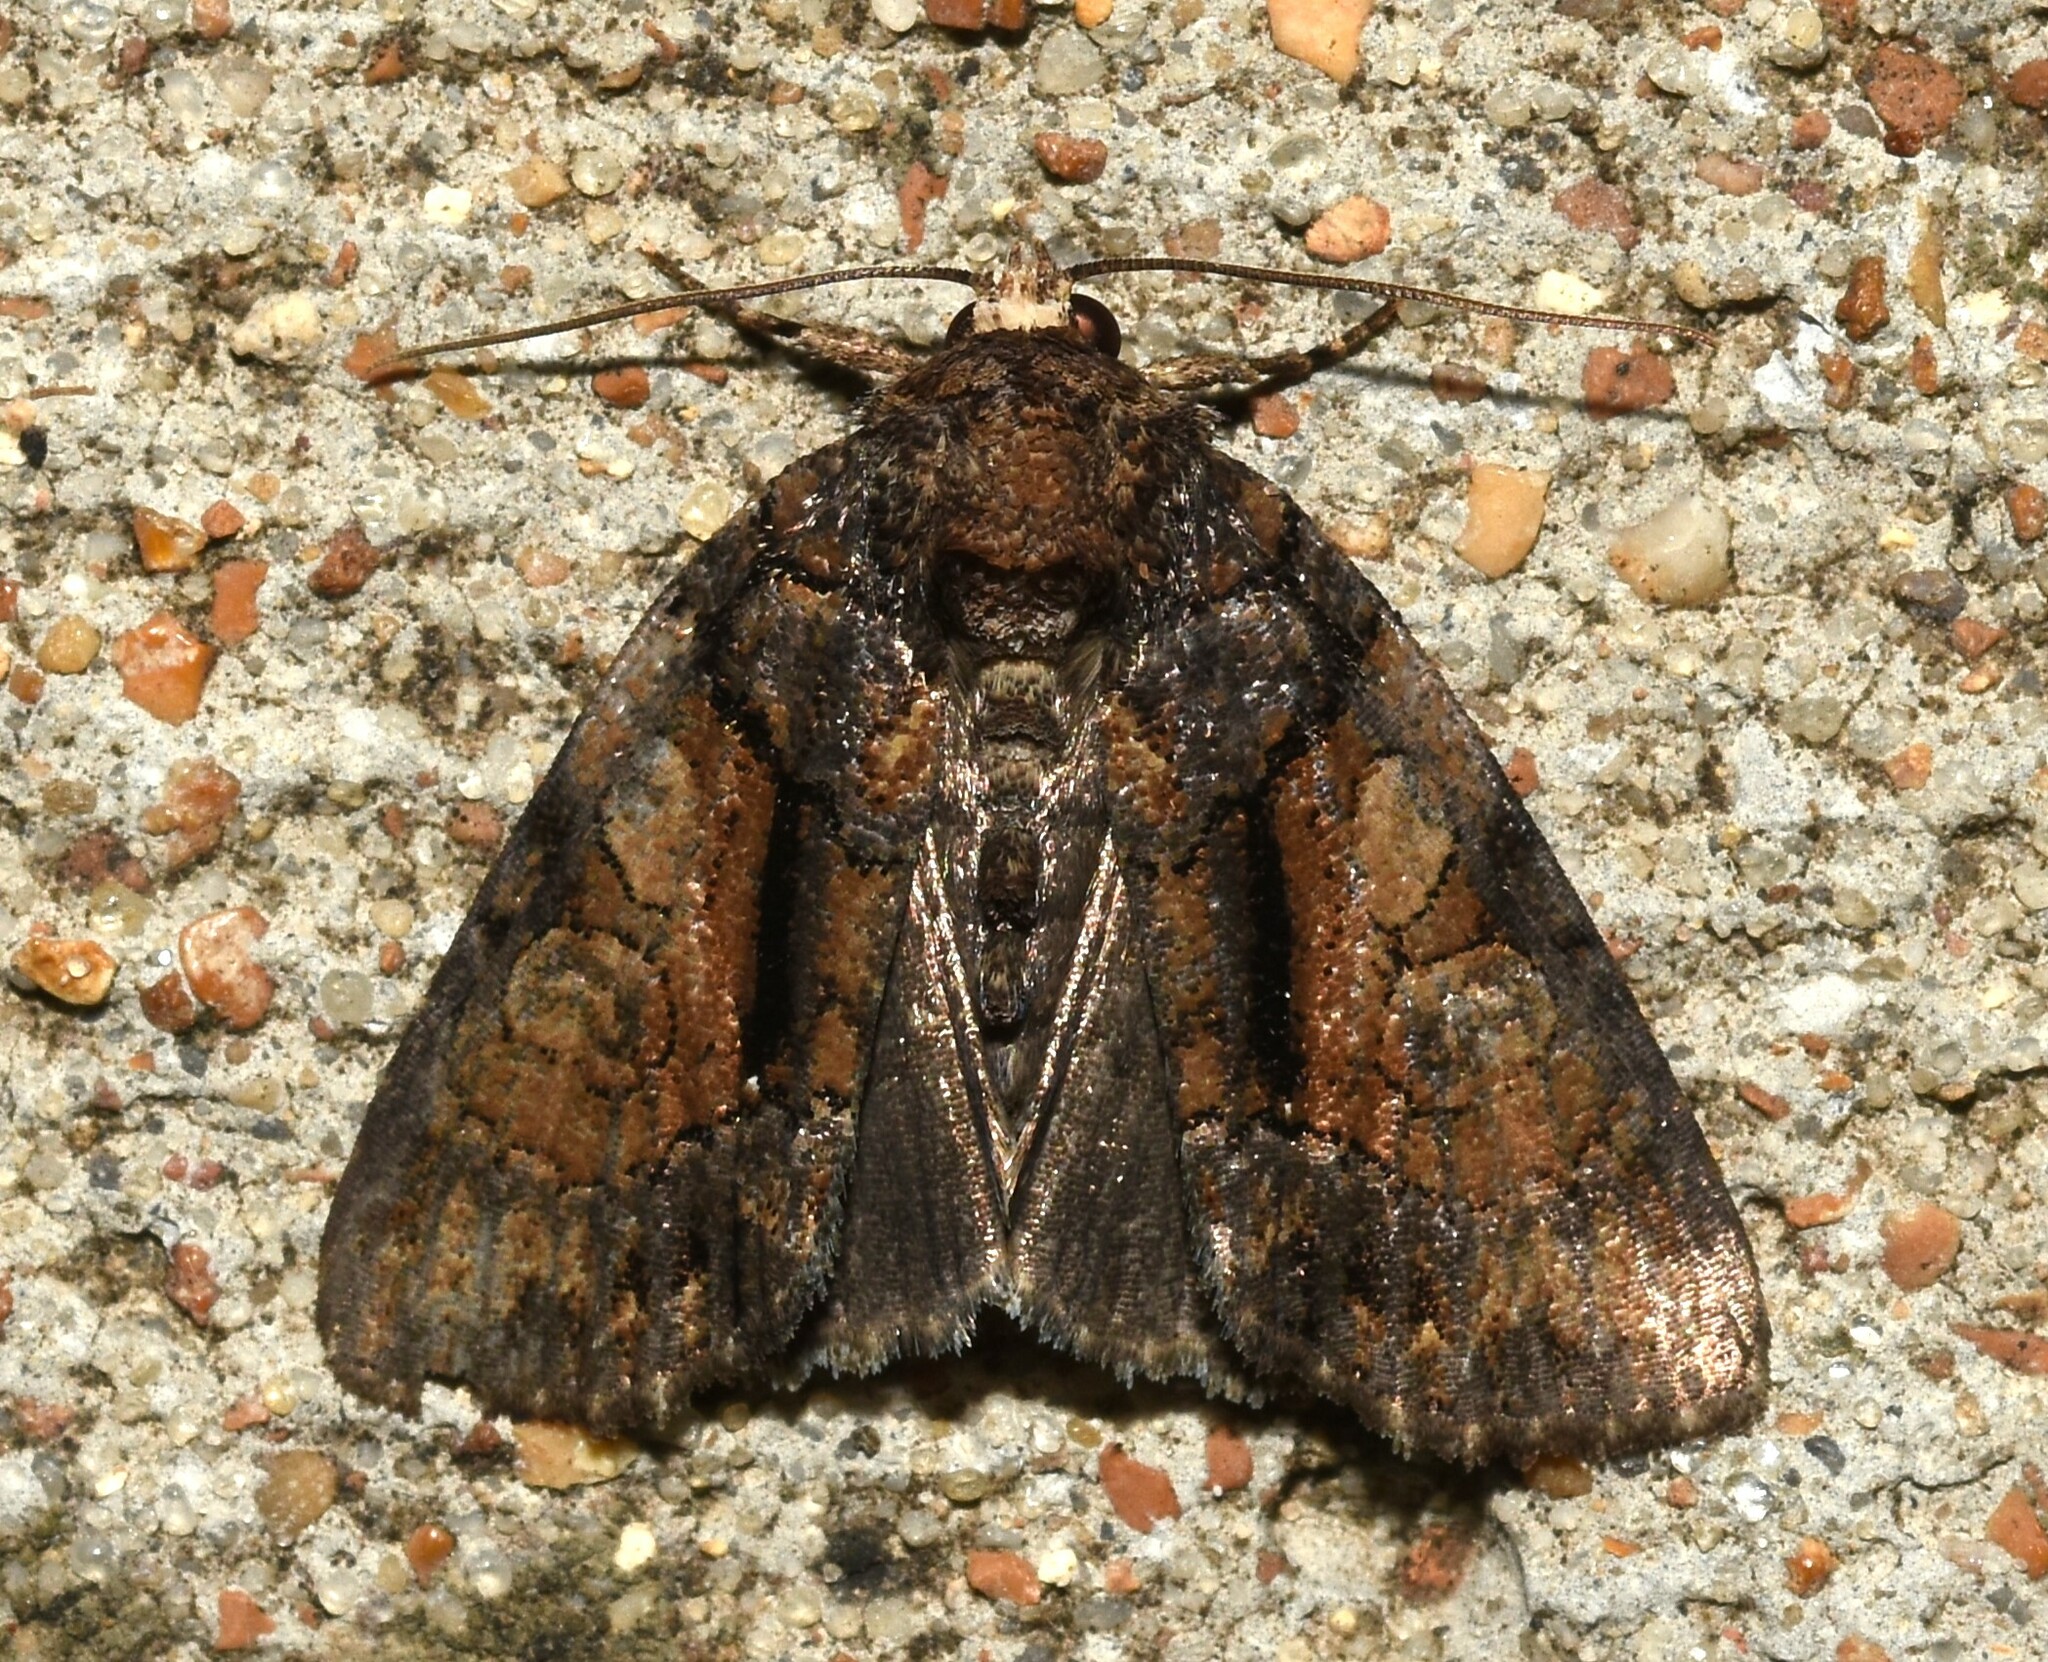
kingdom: Animalia
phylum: Arthropoda
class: Insecta
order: Lepidoptera
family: Noctuidae
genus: Chytonix
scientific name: Chytonix palliatricula
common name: Cloaked marvel
